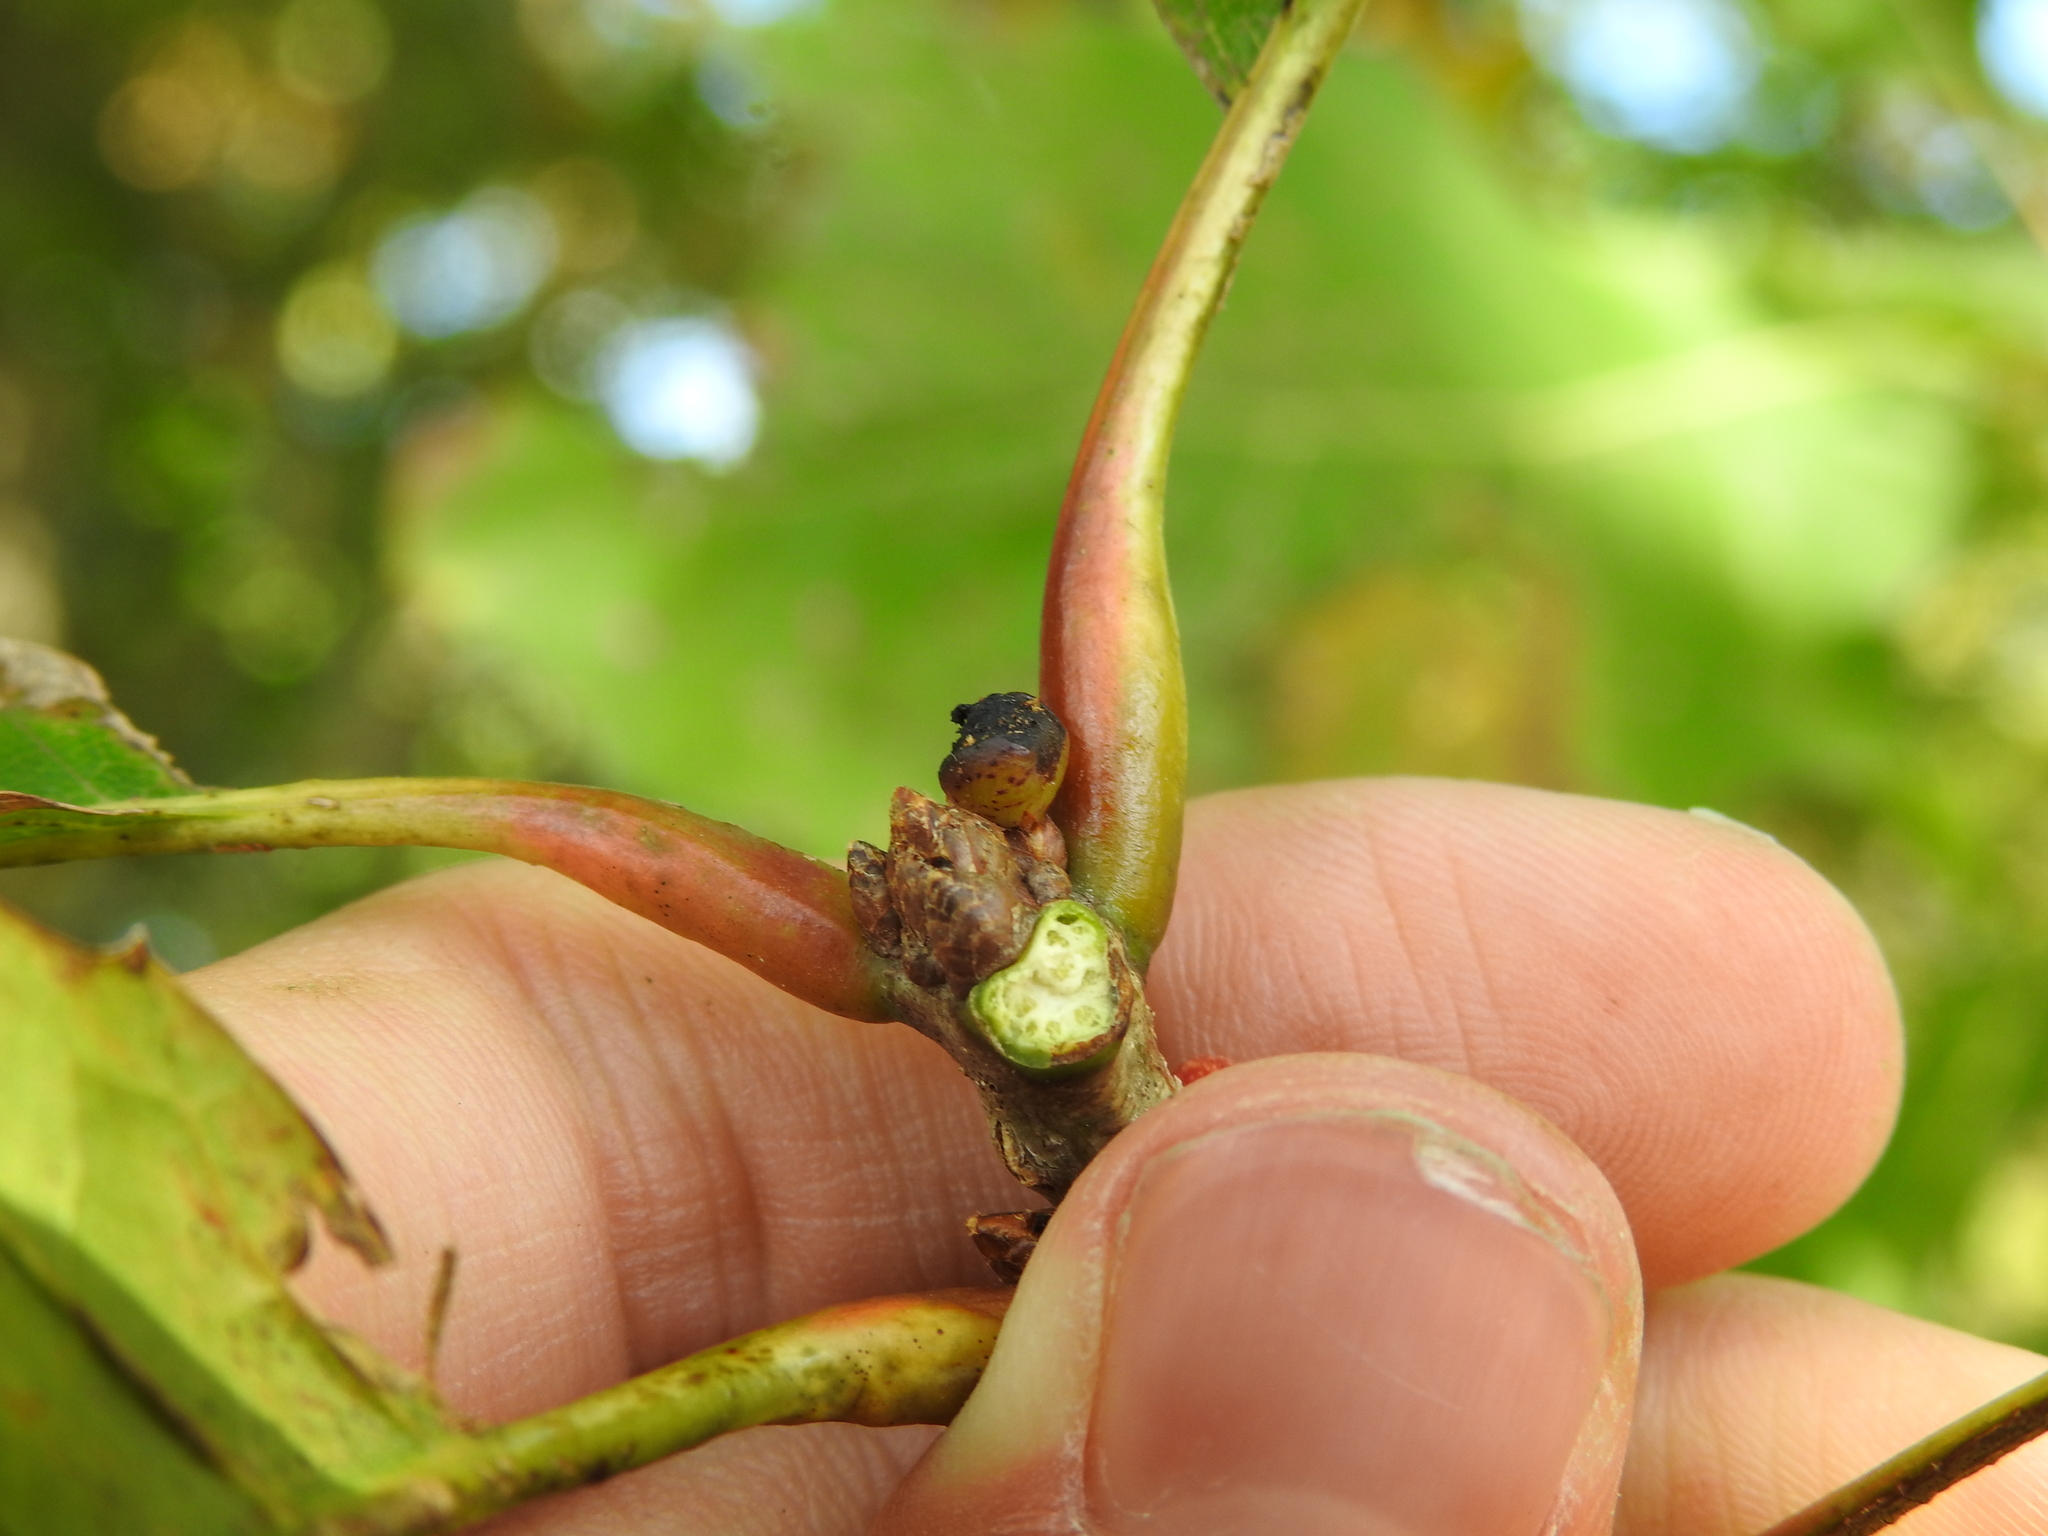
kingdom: Animalia
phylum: Arthropoda
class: Insecta
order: Hymenoptera
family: Cynipidae
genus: Amphibolips
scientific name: Amphibolips
